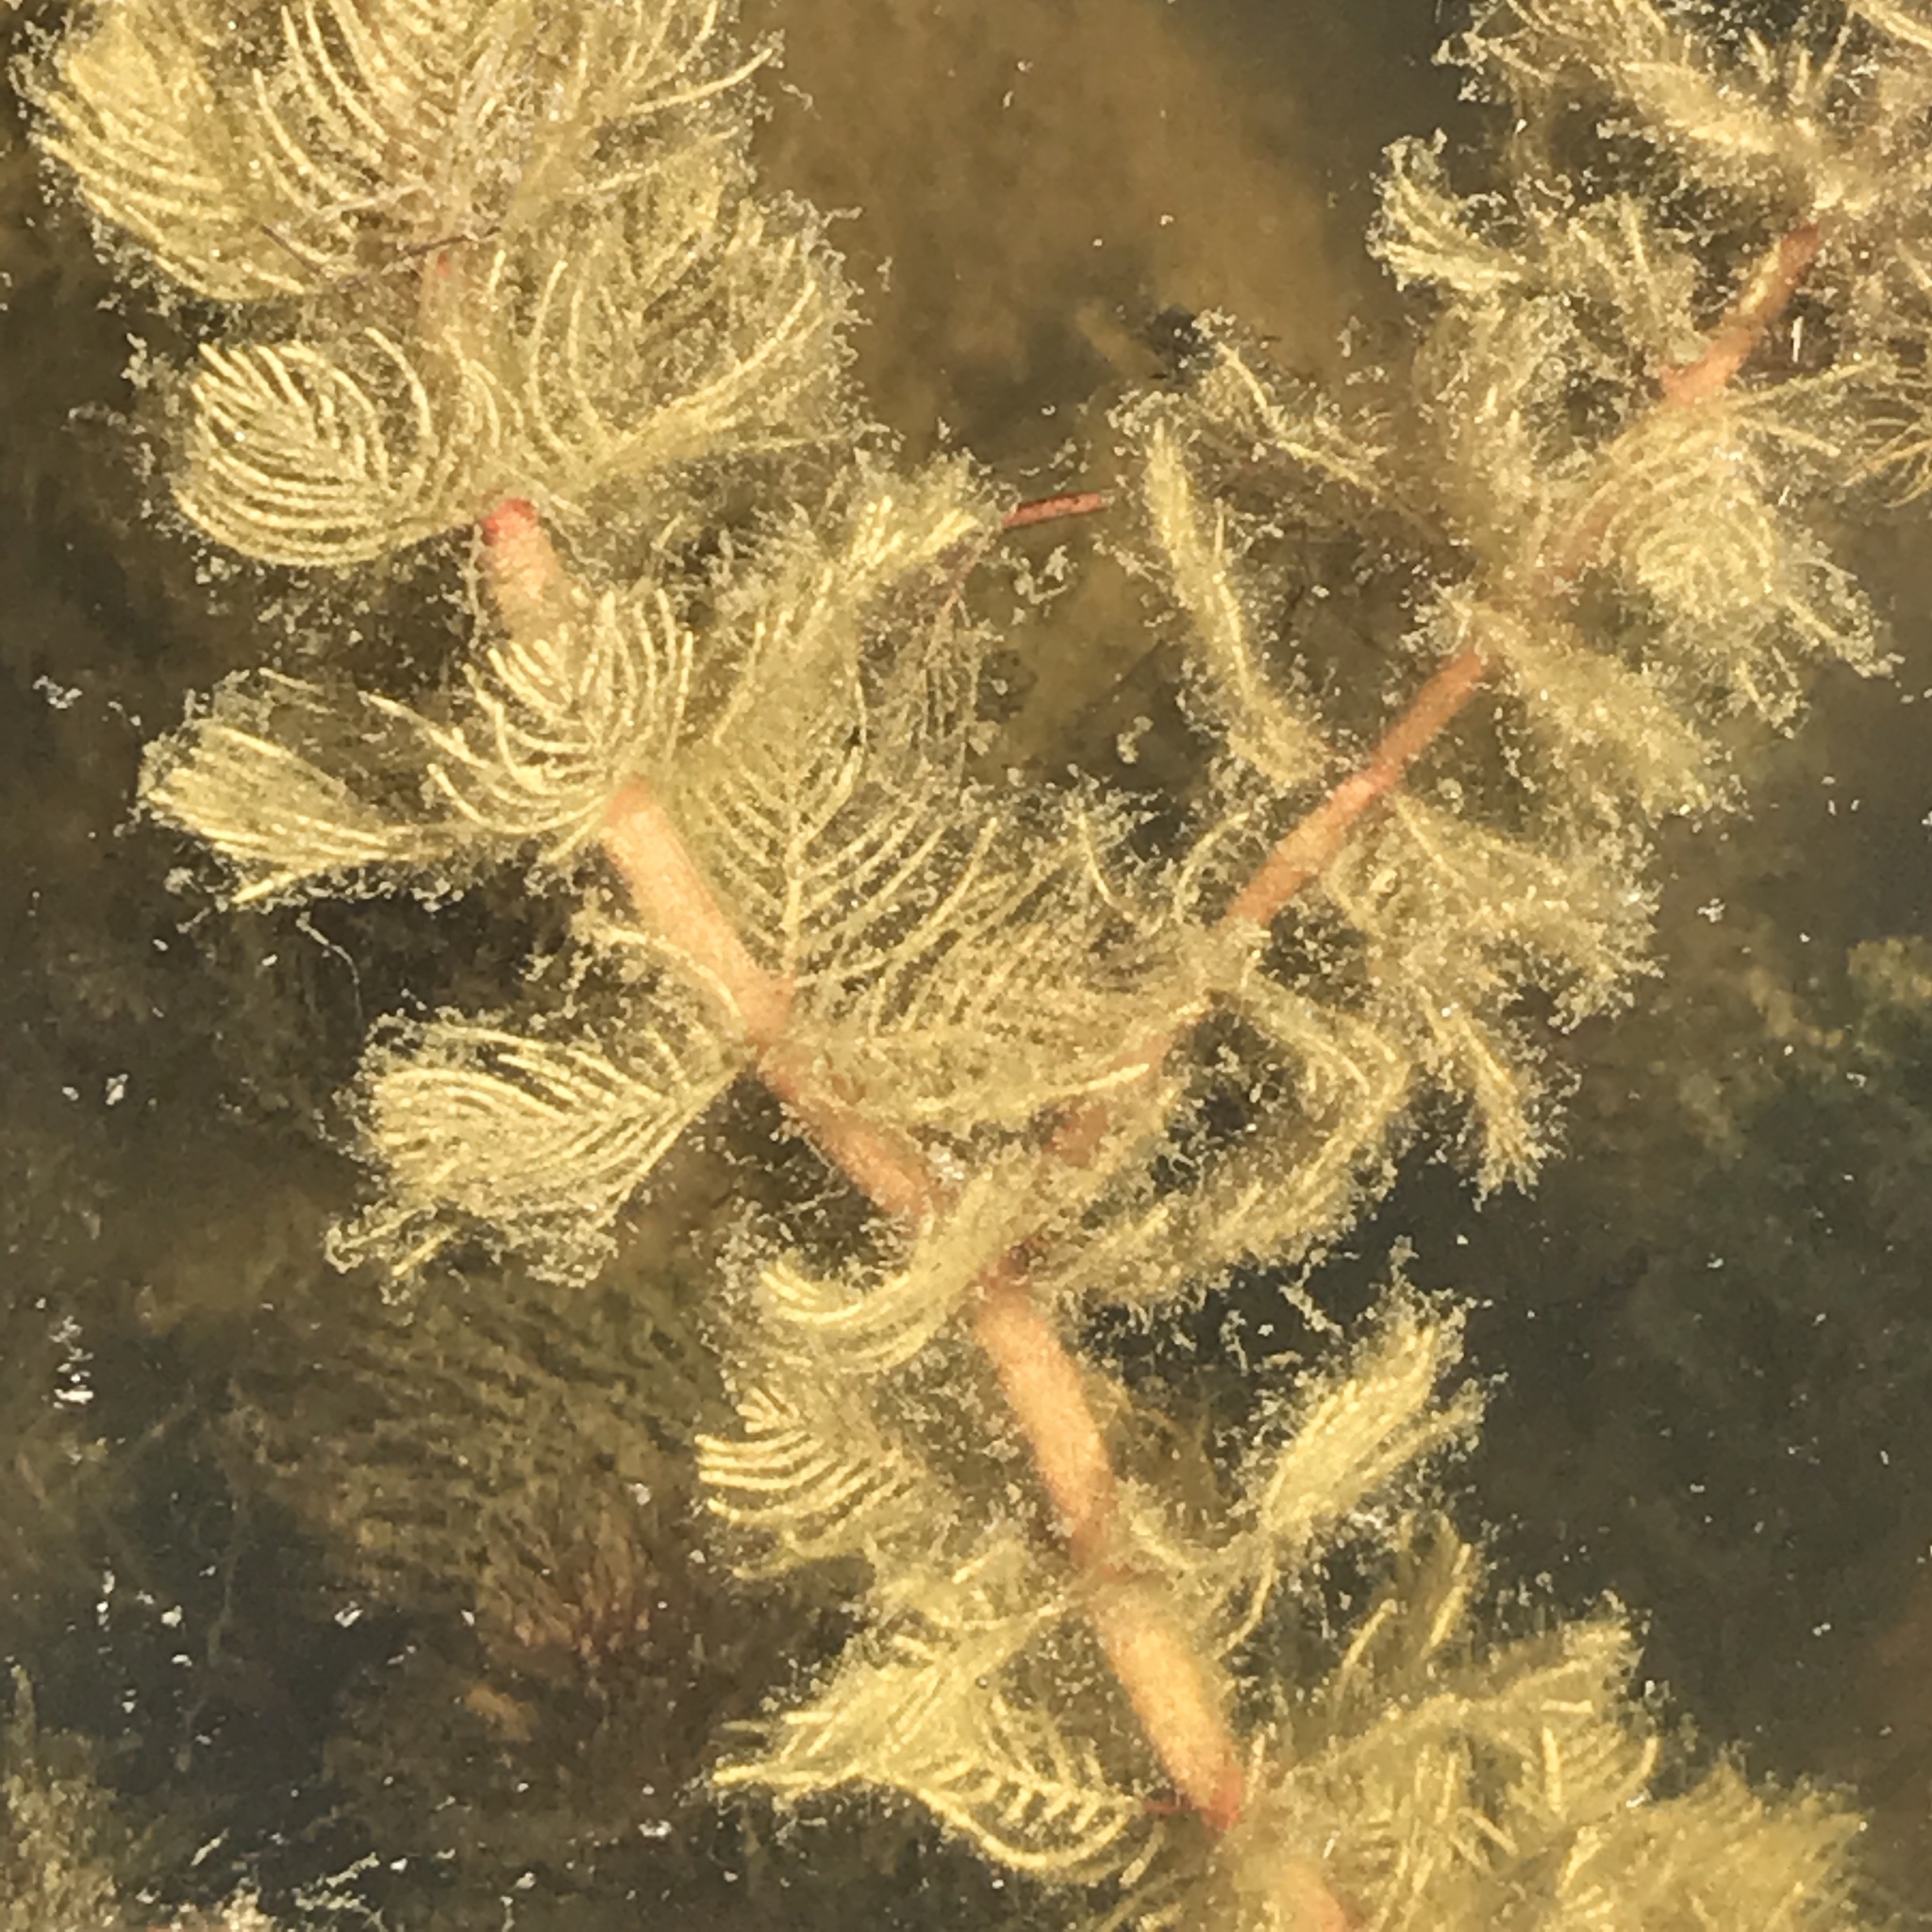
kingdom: Plantae
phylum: Tracheophyta
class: Magnoliopsida
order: Saxifragales
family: Haloragaceae
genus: Myriophyllum
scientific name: Myriophyllum spicatum
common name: Spiked water-milfoil
